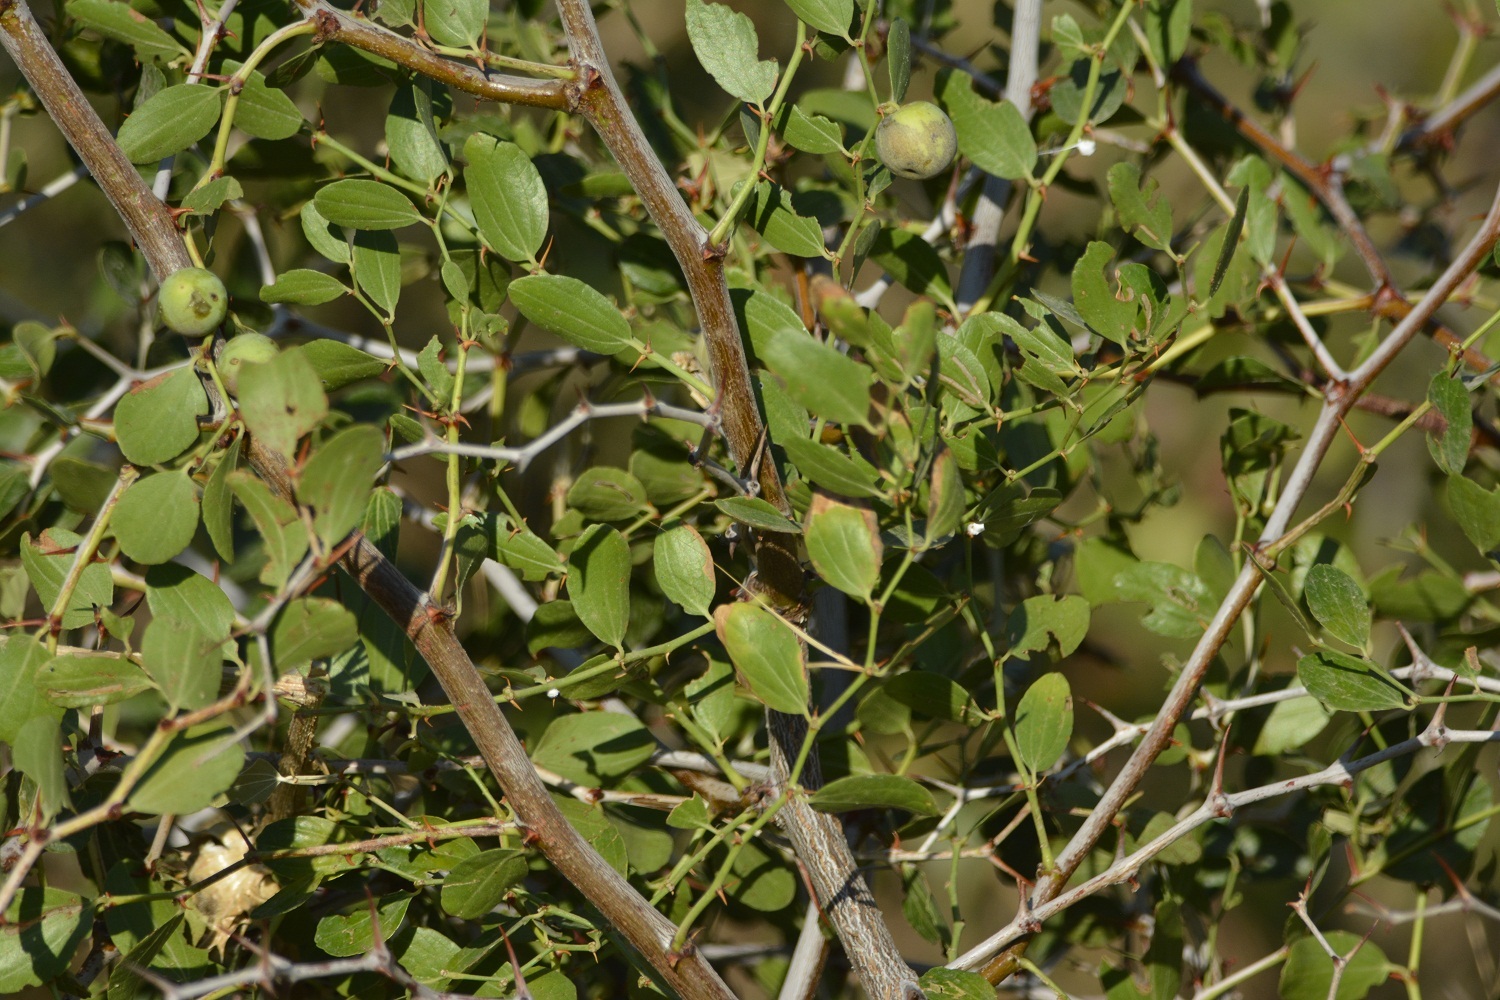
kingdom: Plantae
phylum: Tracheophyta
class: Magnoliopsida
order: Rosales
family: Rhamnaceae
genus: Ziziphus
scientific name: Ziziphus lotus
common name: Lotus
